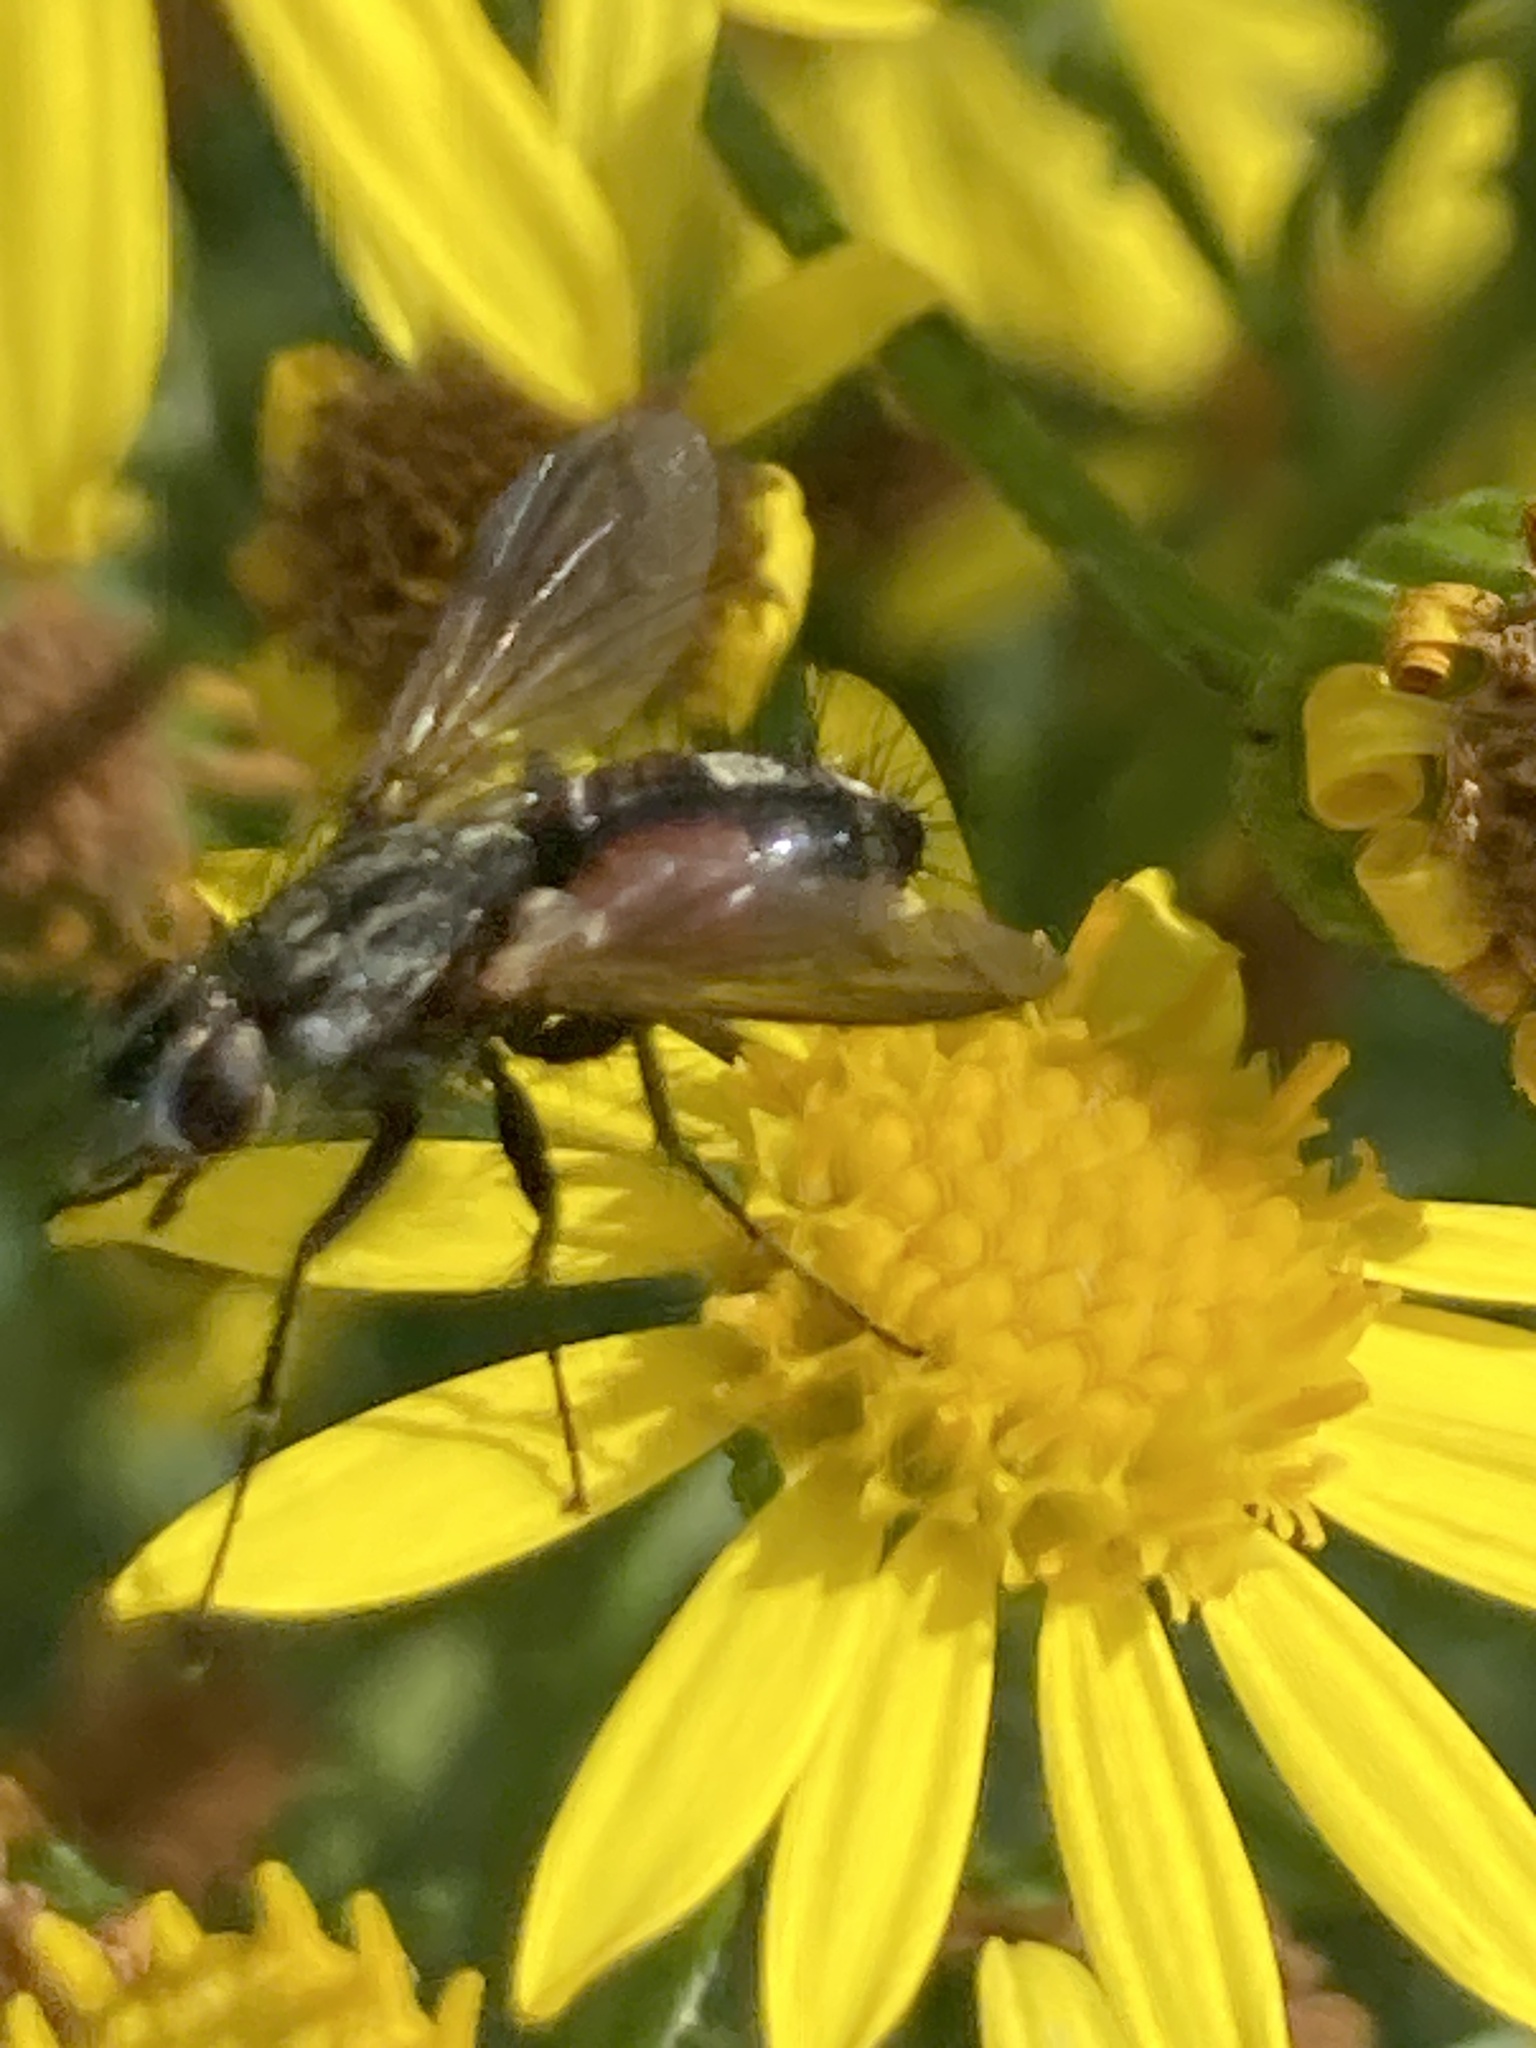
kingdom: Animalia
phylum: Arthropoda
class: Insecta
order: Diptera
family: Tachinidae
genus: Eriothrix
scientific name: Eriothrix rufomaculatus
